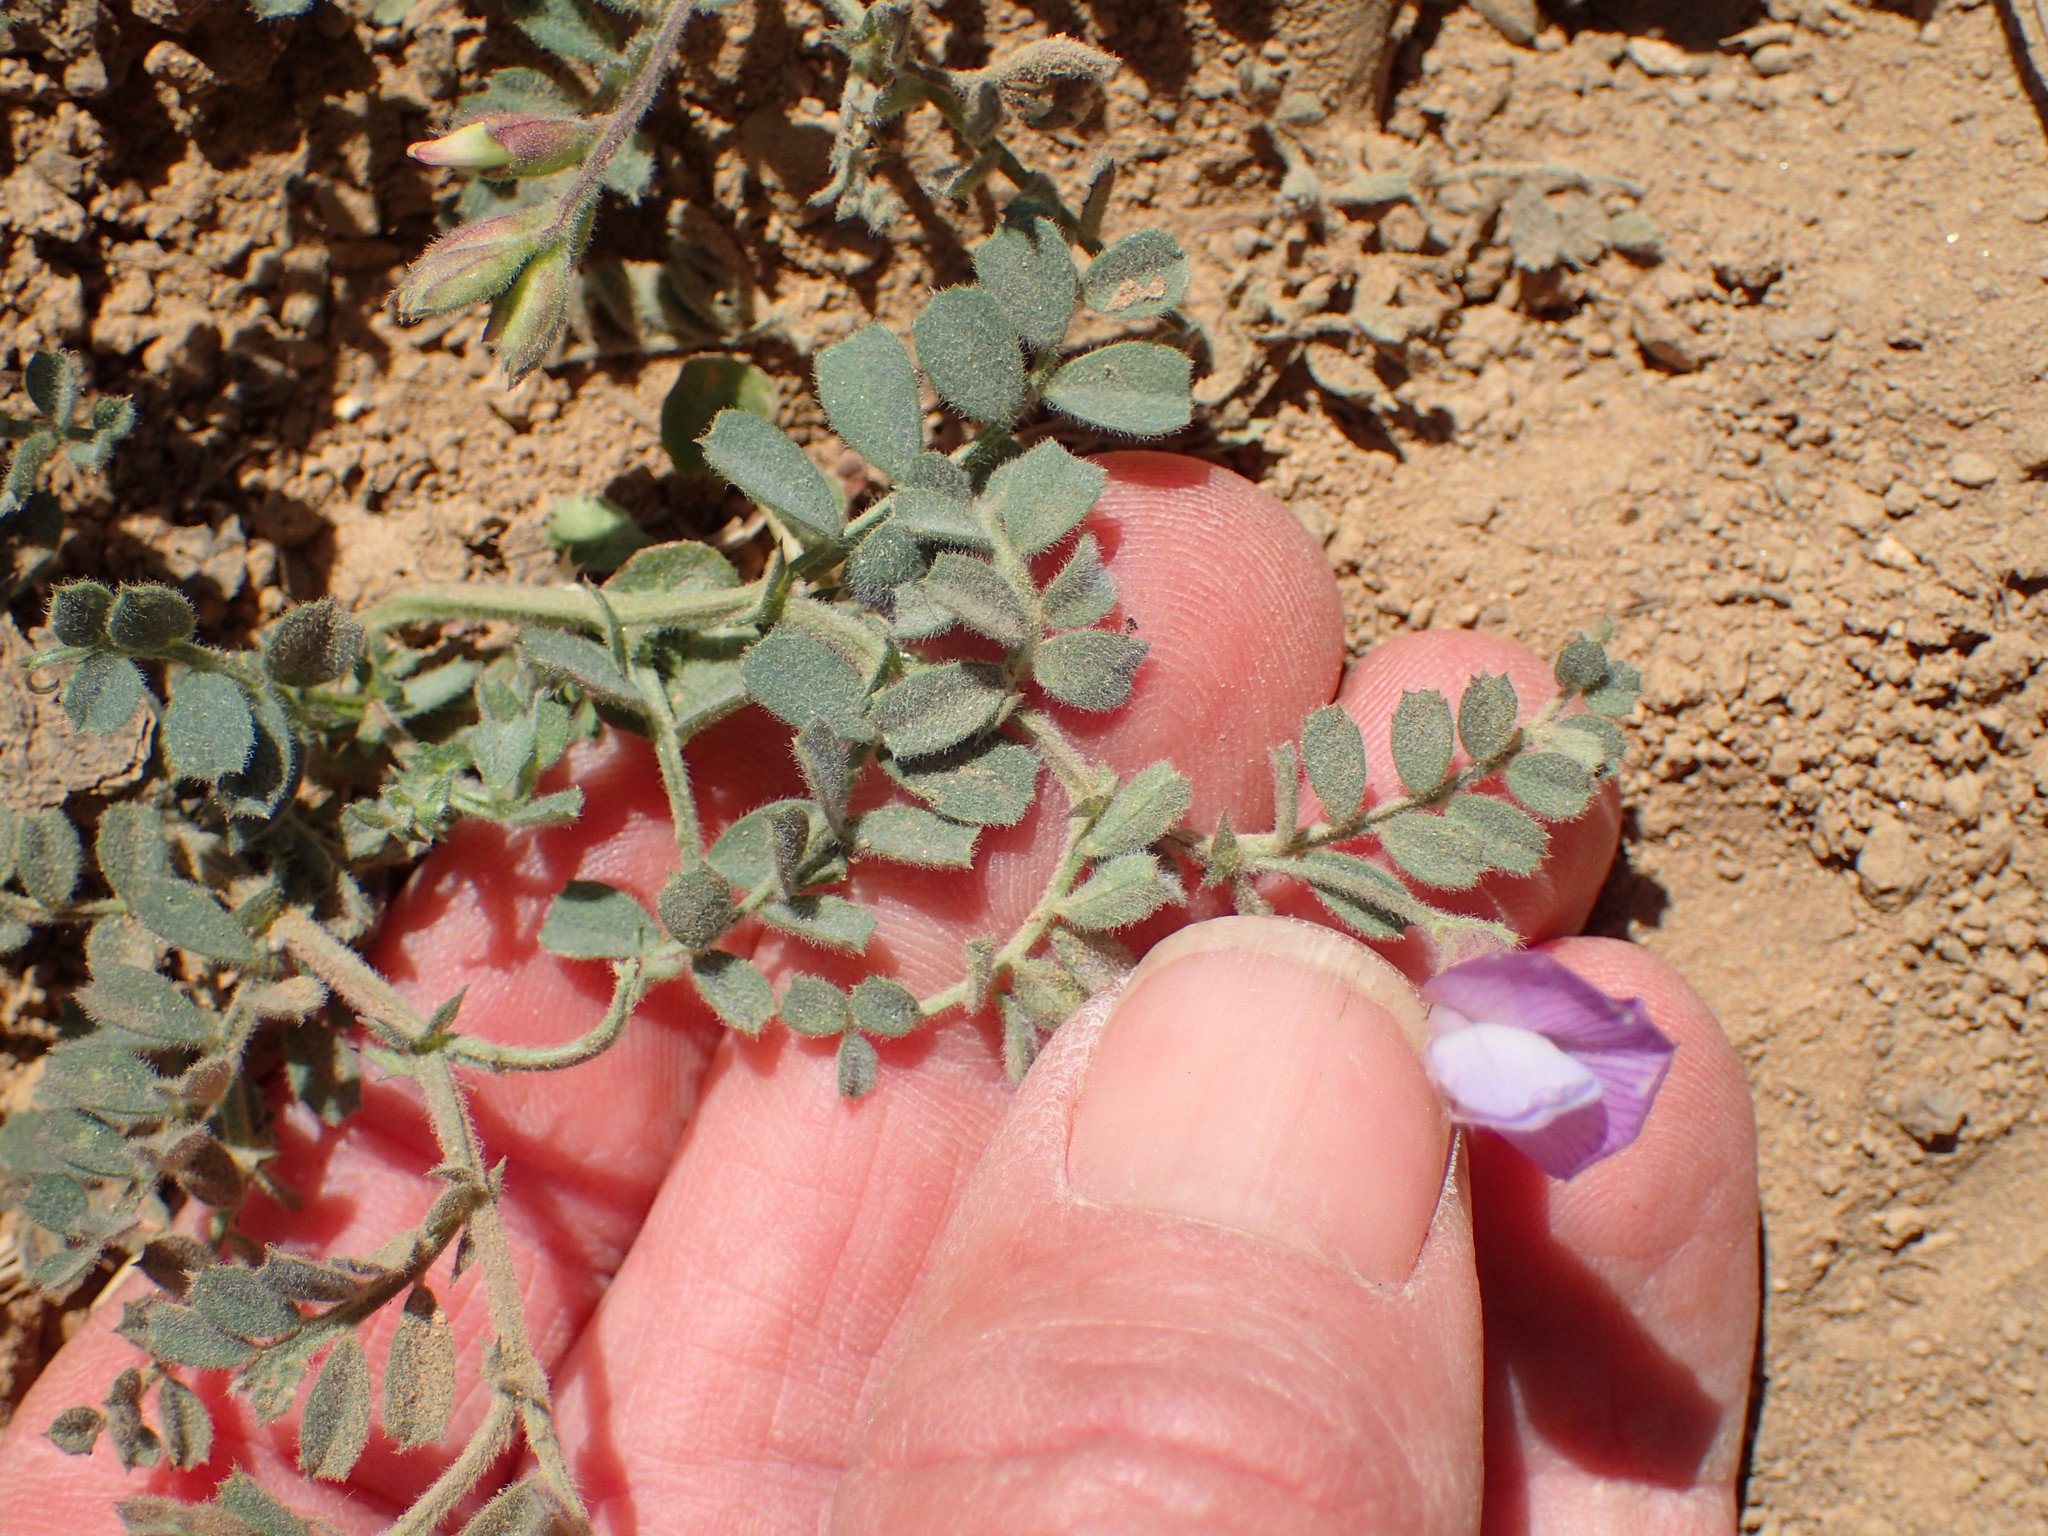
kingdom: Plantae
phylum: Tracheophyta
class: Magnoliopsida
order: Fabales
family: Fabaceae
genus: Astragalus
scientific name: Astragalus lentiginosus
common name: Freckled milkvetch
